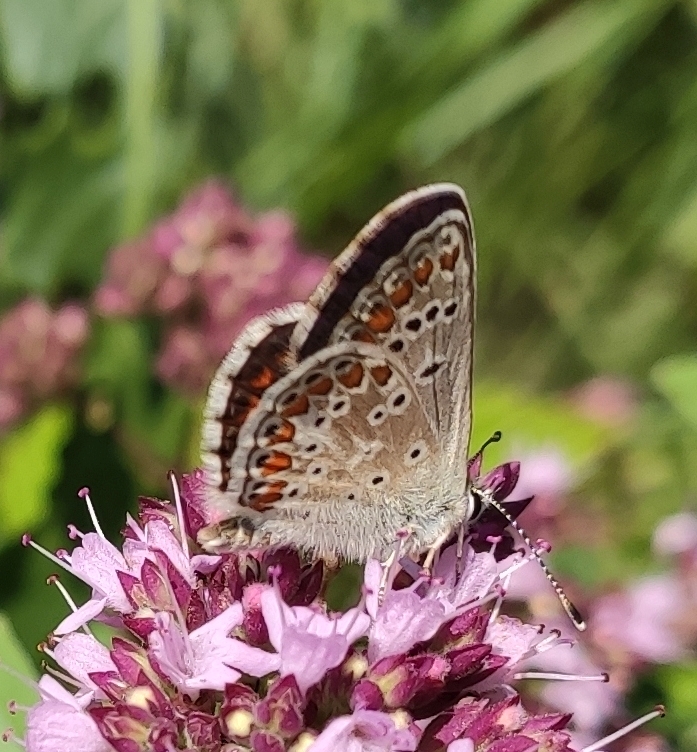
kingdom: Animalia
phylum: Arthropoda
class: Insecta
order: Lepidoptera
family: Lycaenidae
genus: Aricia
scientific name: Aricia agestis
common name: Brown argus
